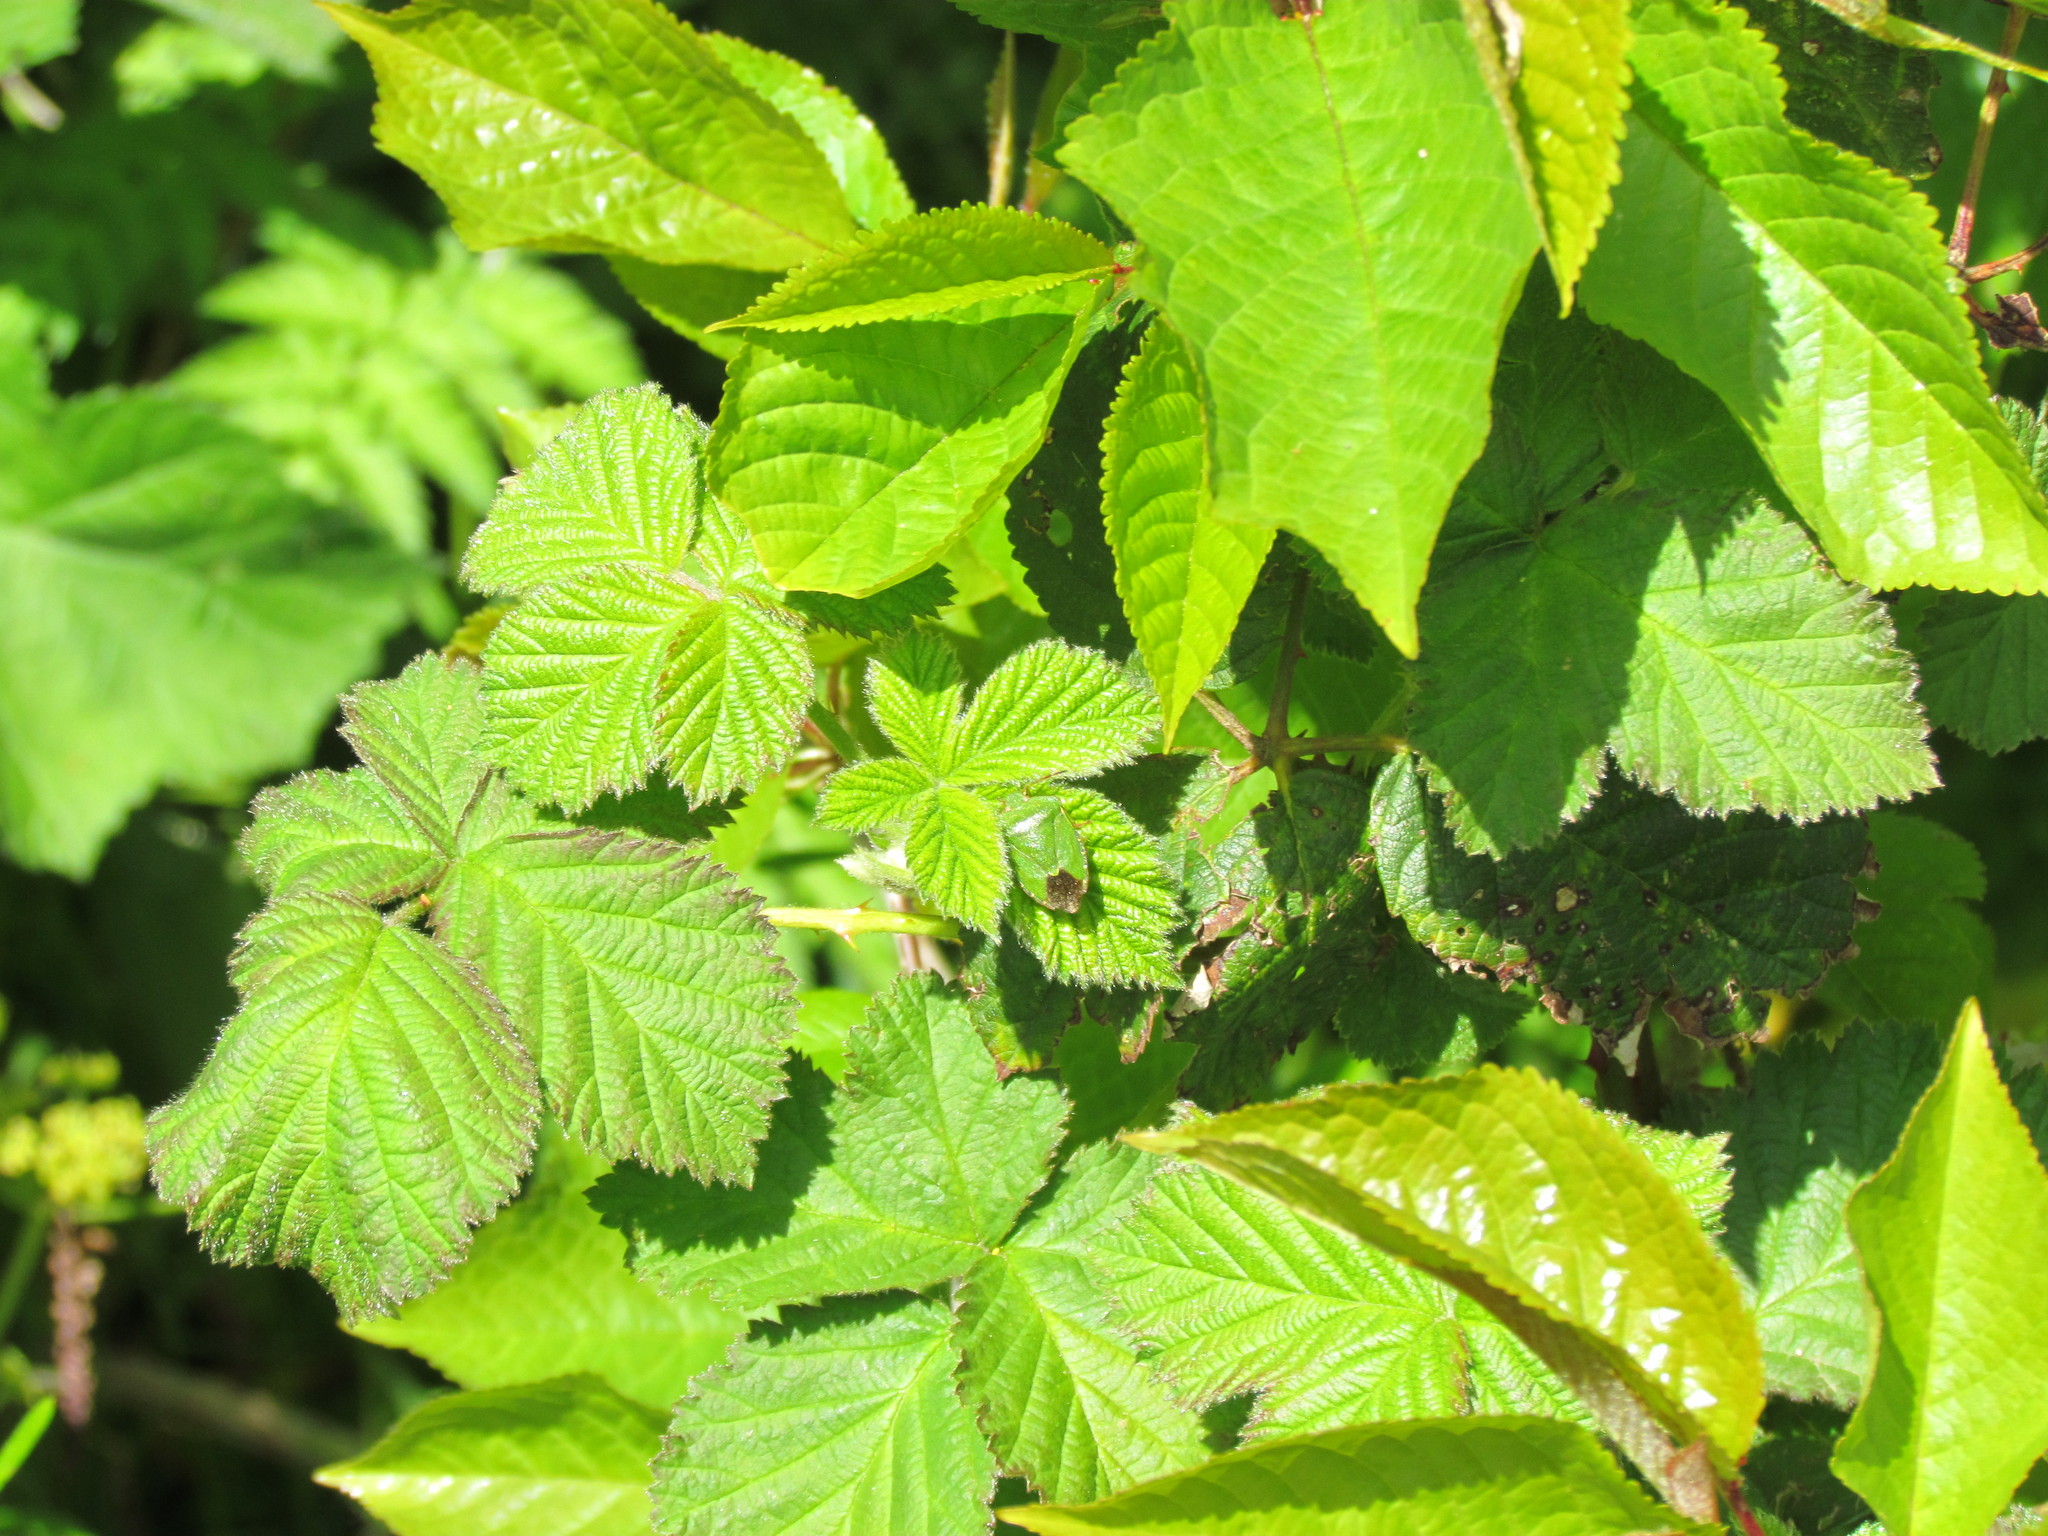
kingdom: Animalia
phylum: Arthropoda
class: Insecta
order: Hemiptera
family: Pentatomidae
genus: Palomena
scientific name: Palomena prasina
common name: Green shieldbug
